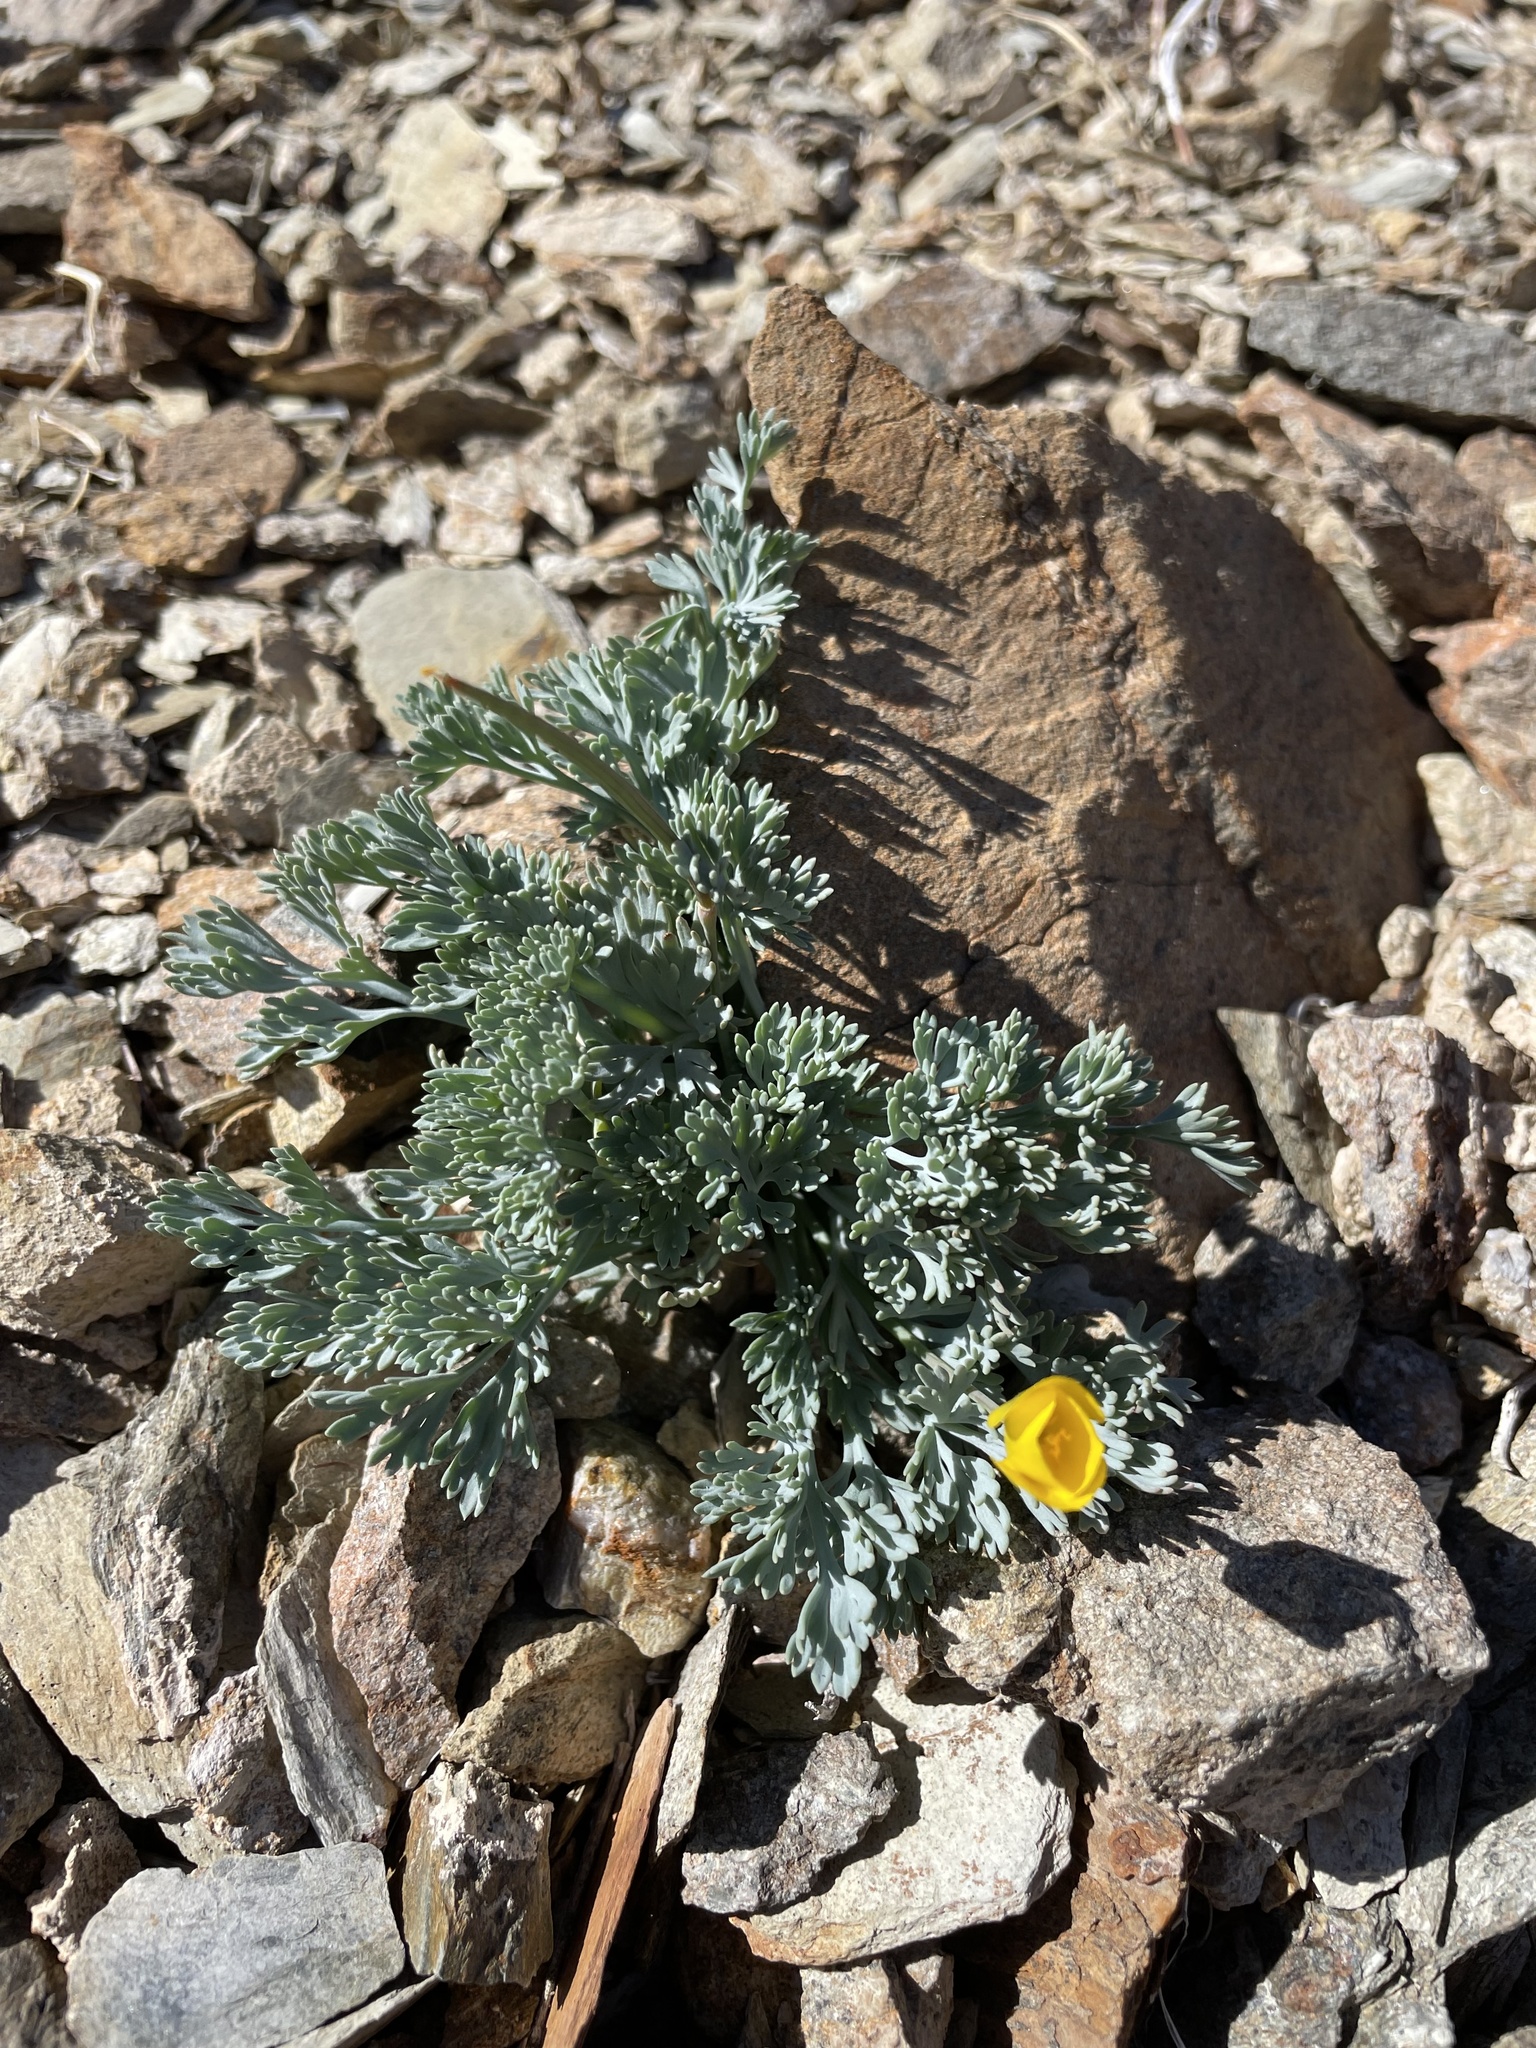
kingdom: Plantae
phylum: Tracheophyta
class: Magnoliopsida
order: Ranunculales
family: Papaveraceae
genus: Eschscholzia
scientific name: Eschscholzia minutiflora
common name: Small-flower california-poppy
